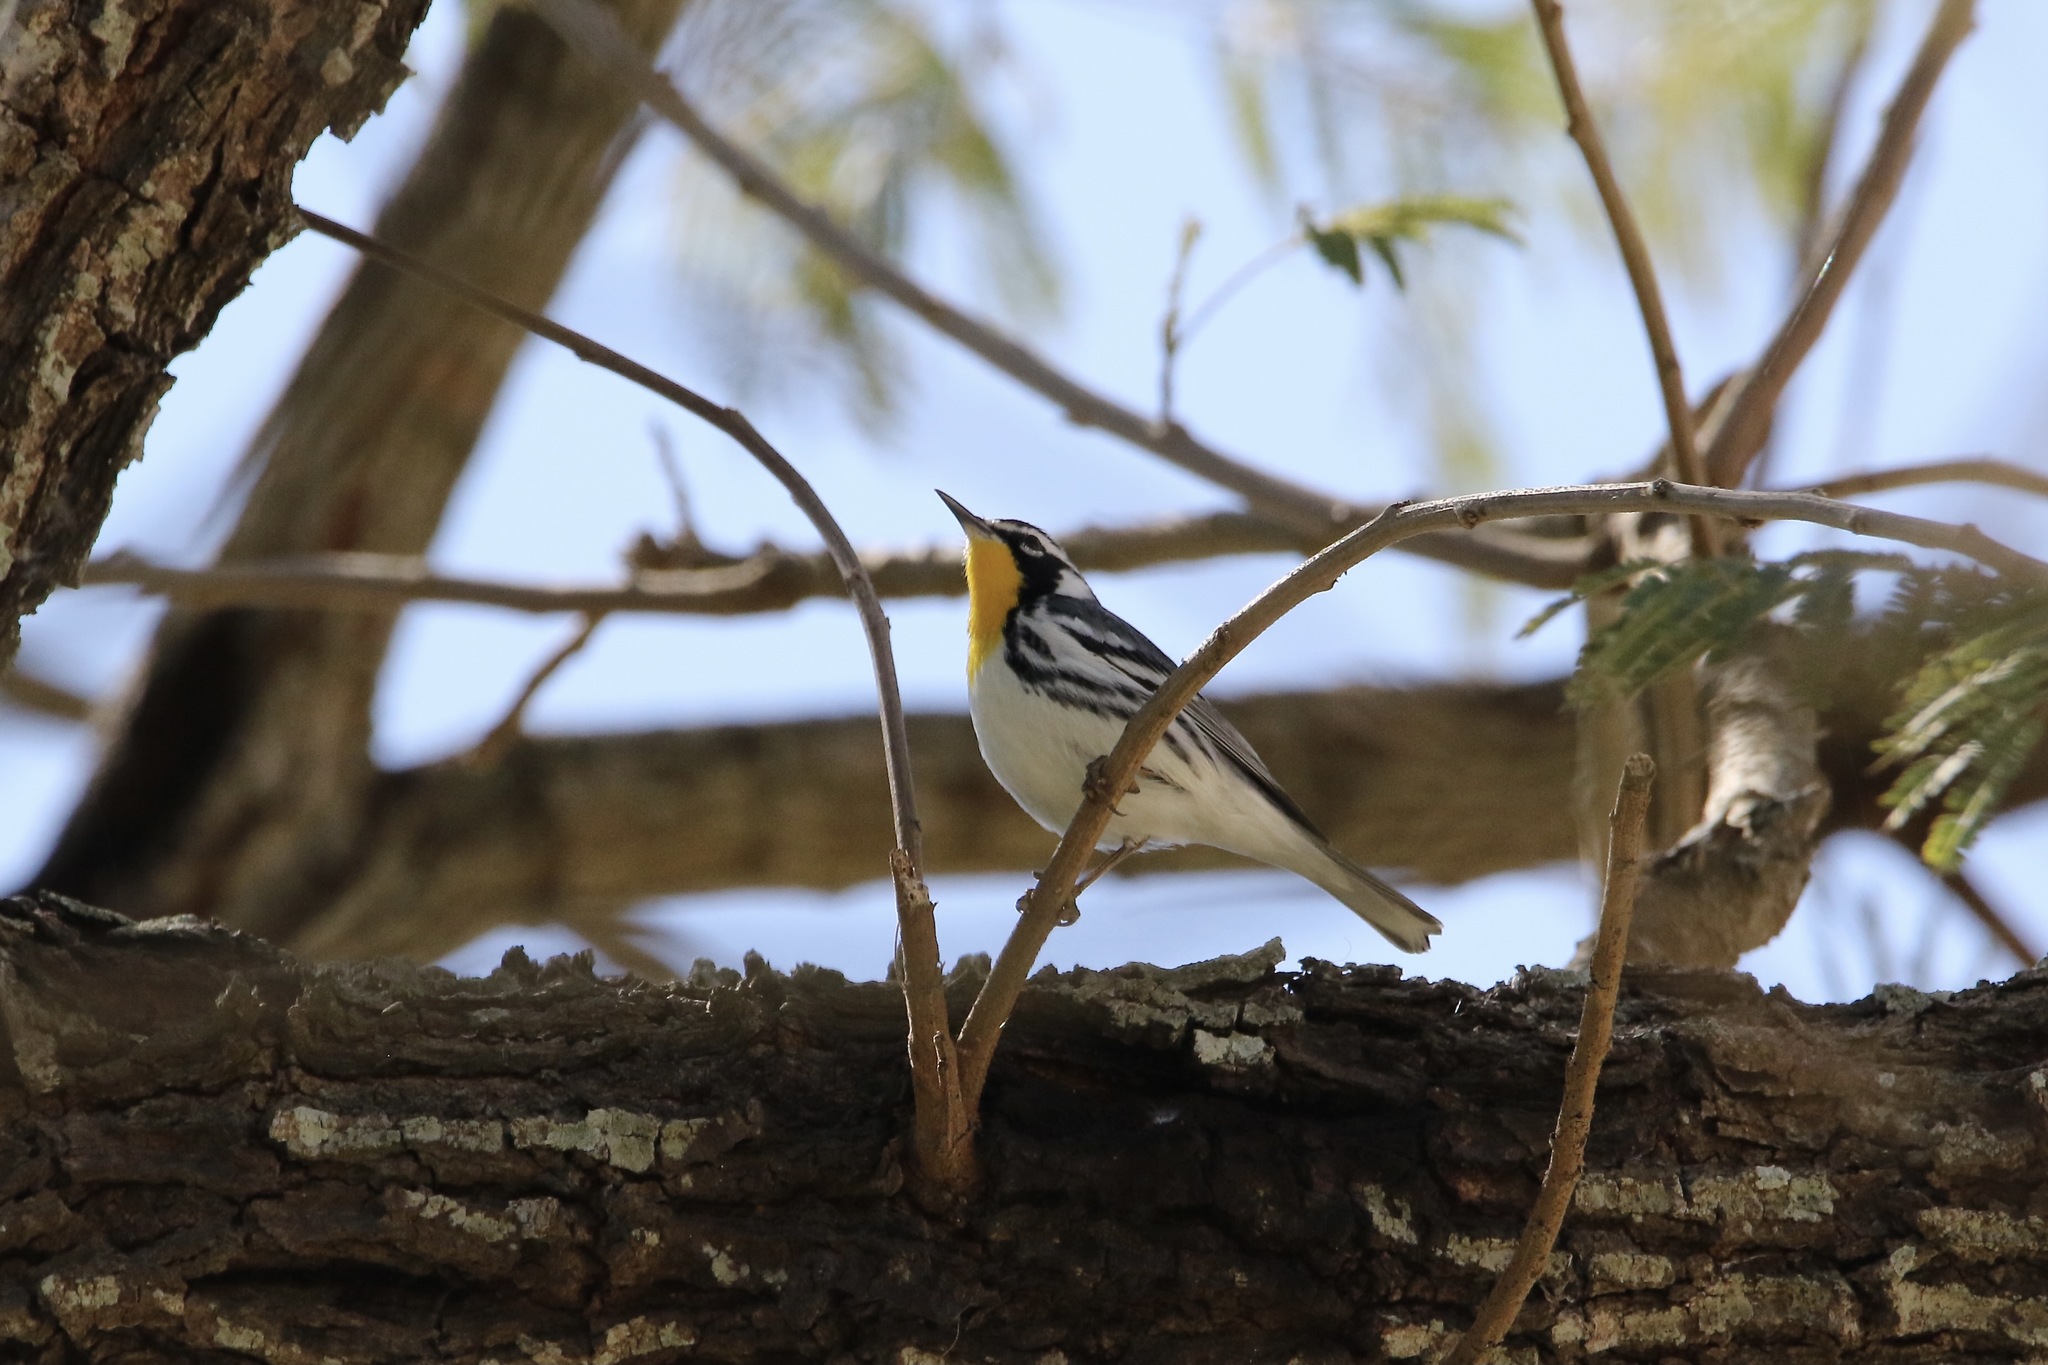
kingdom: Animalia
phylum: Chordata
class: Aves
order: Passeriformes
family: Parulidae
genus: Setophaga
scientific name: Setophaga dominica
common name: Yellow-throated warbler
